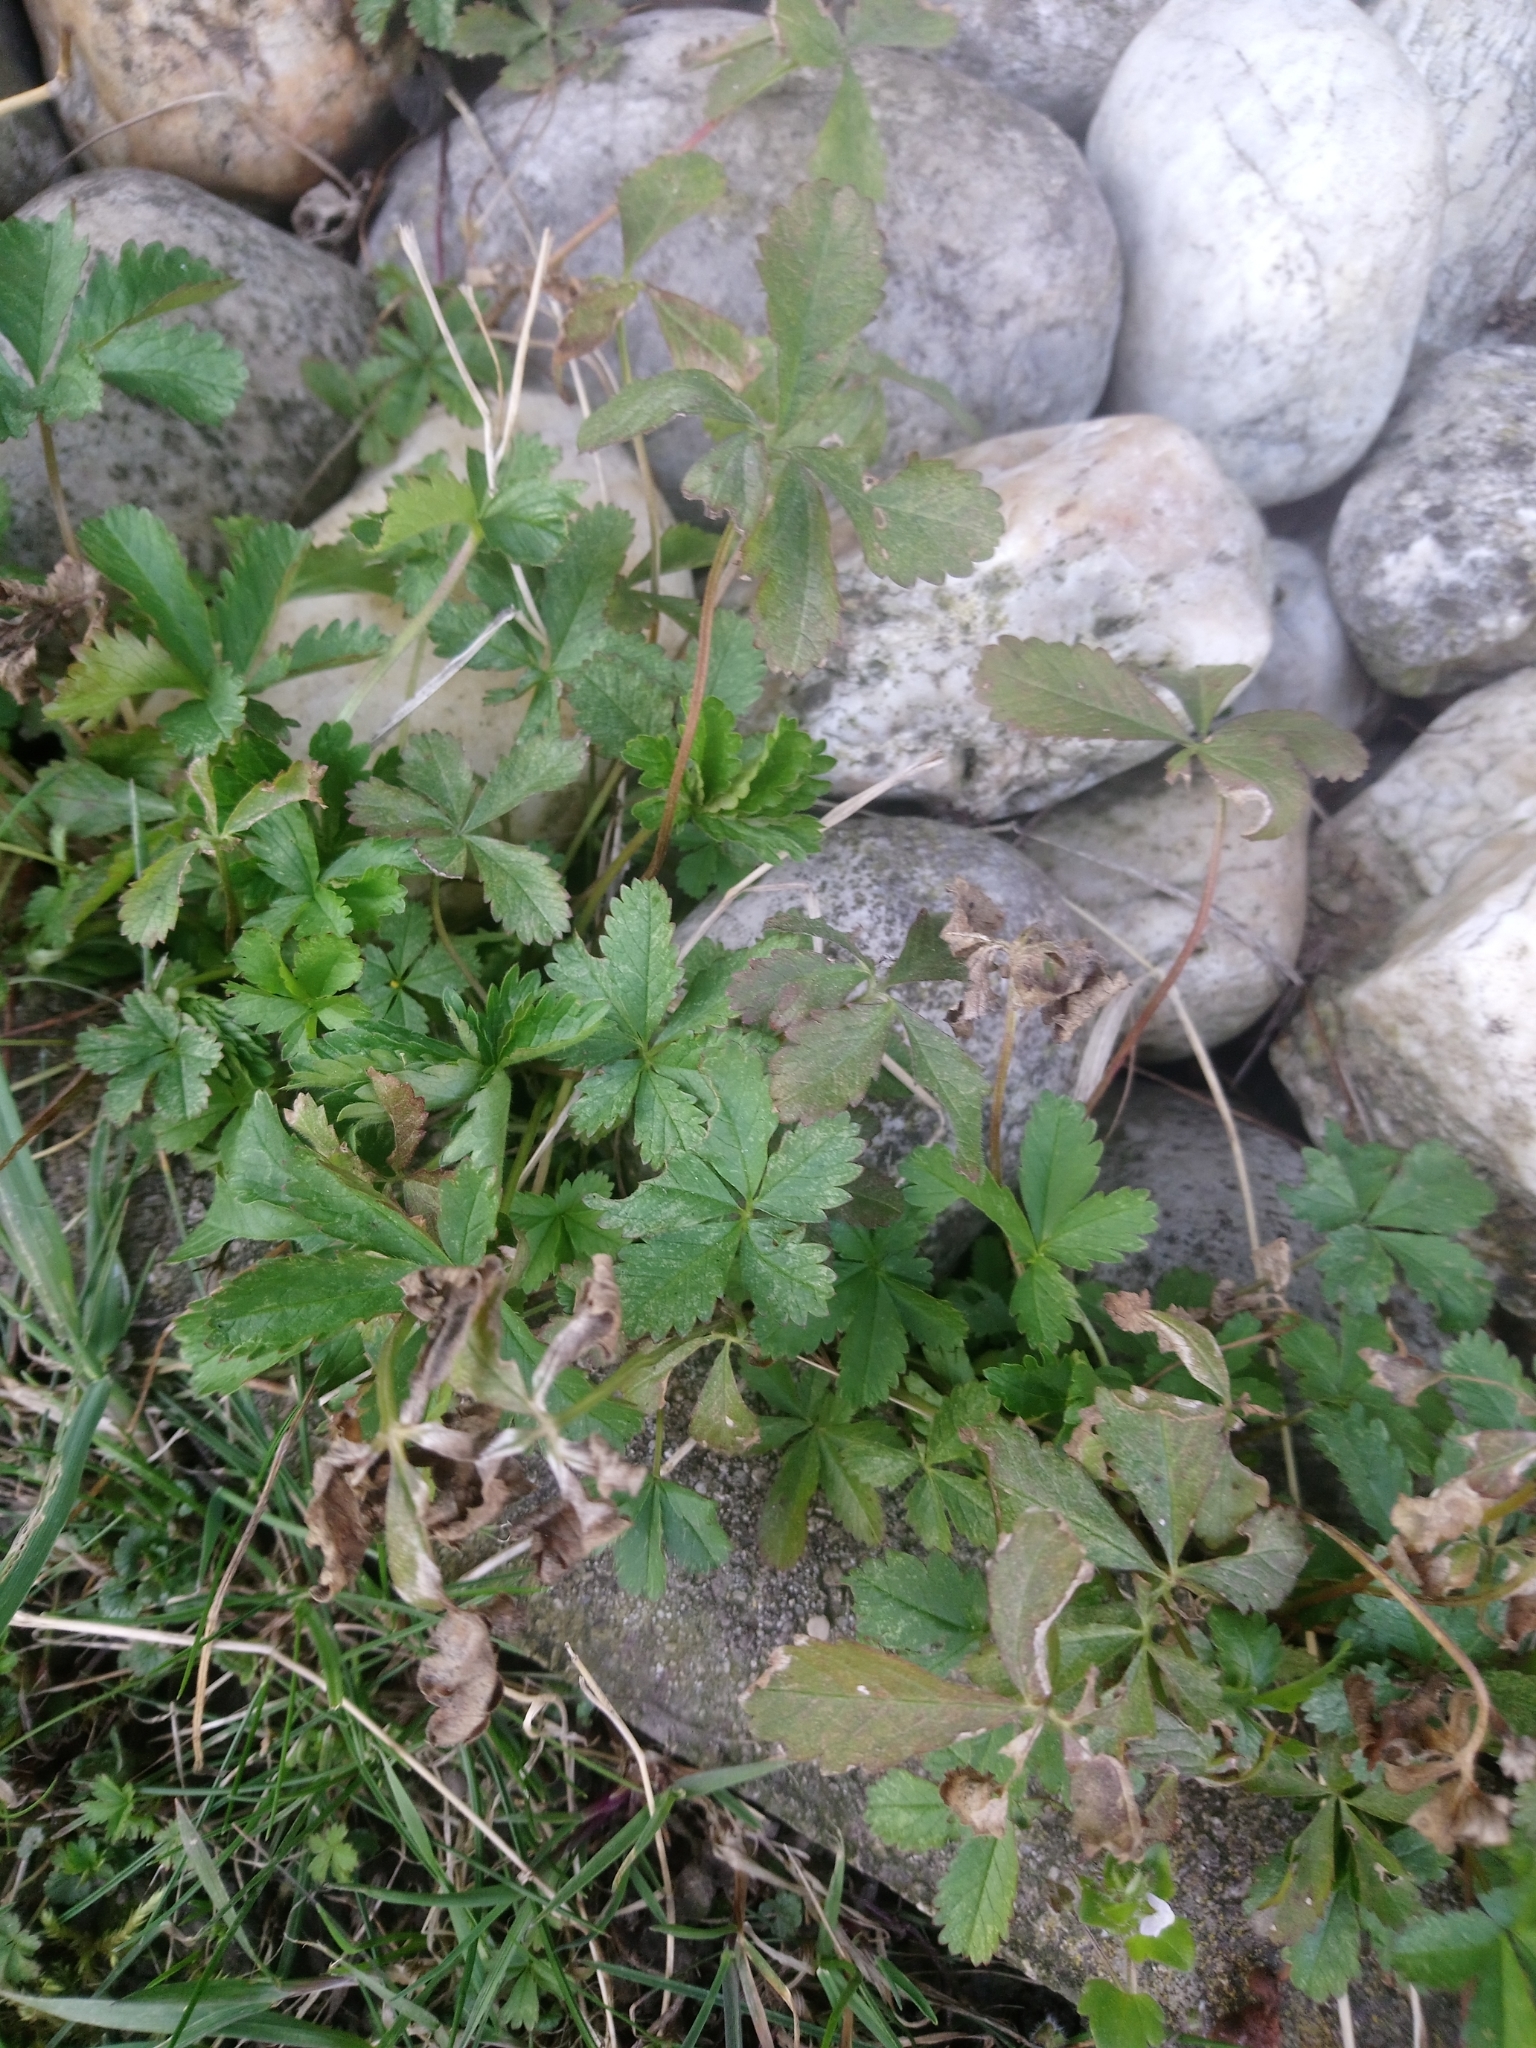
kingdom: Plantae
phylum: Tracheophyta
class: Magnoliopsida
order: Rosales
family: Rosaceae
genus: Potentilla
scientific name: Potentilla reptans
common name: Creeping cinquefoil
